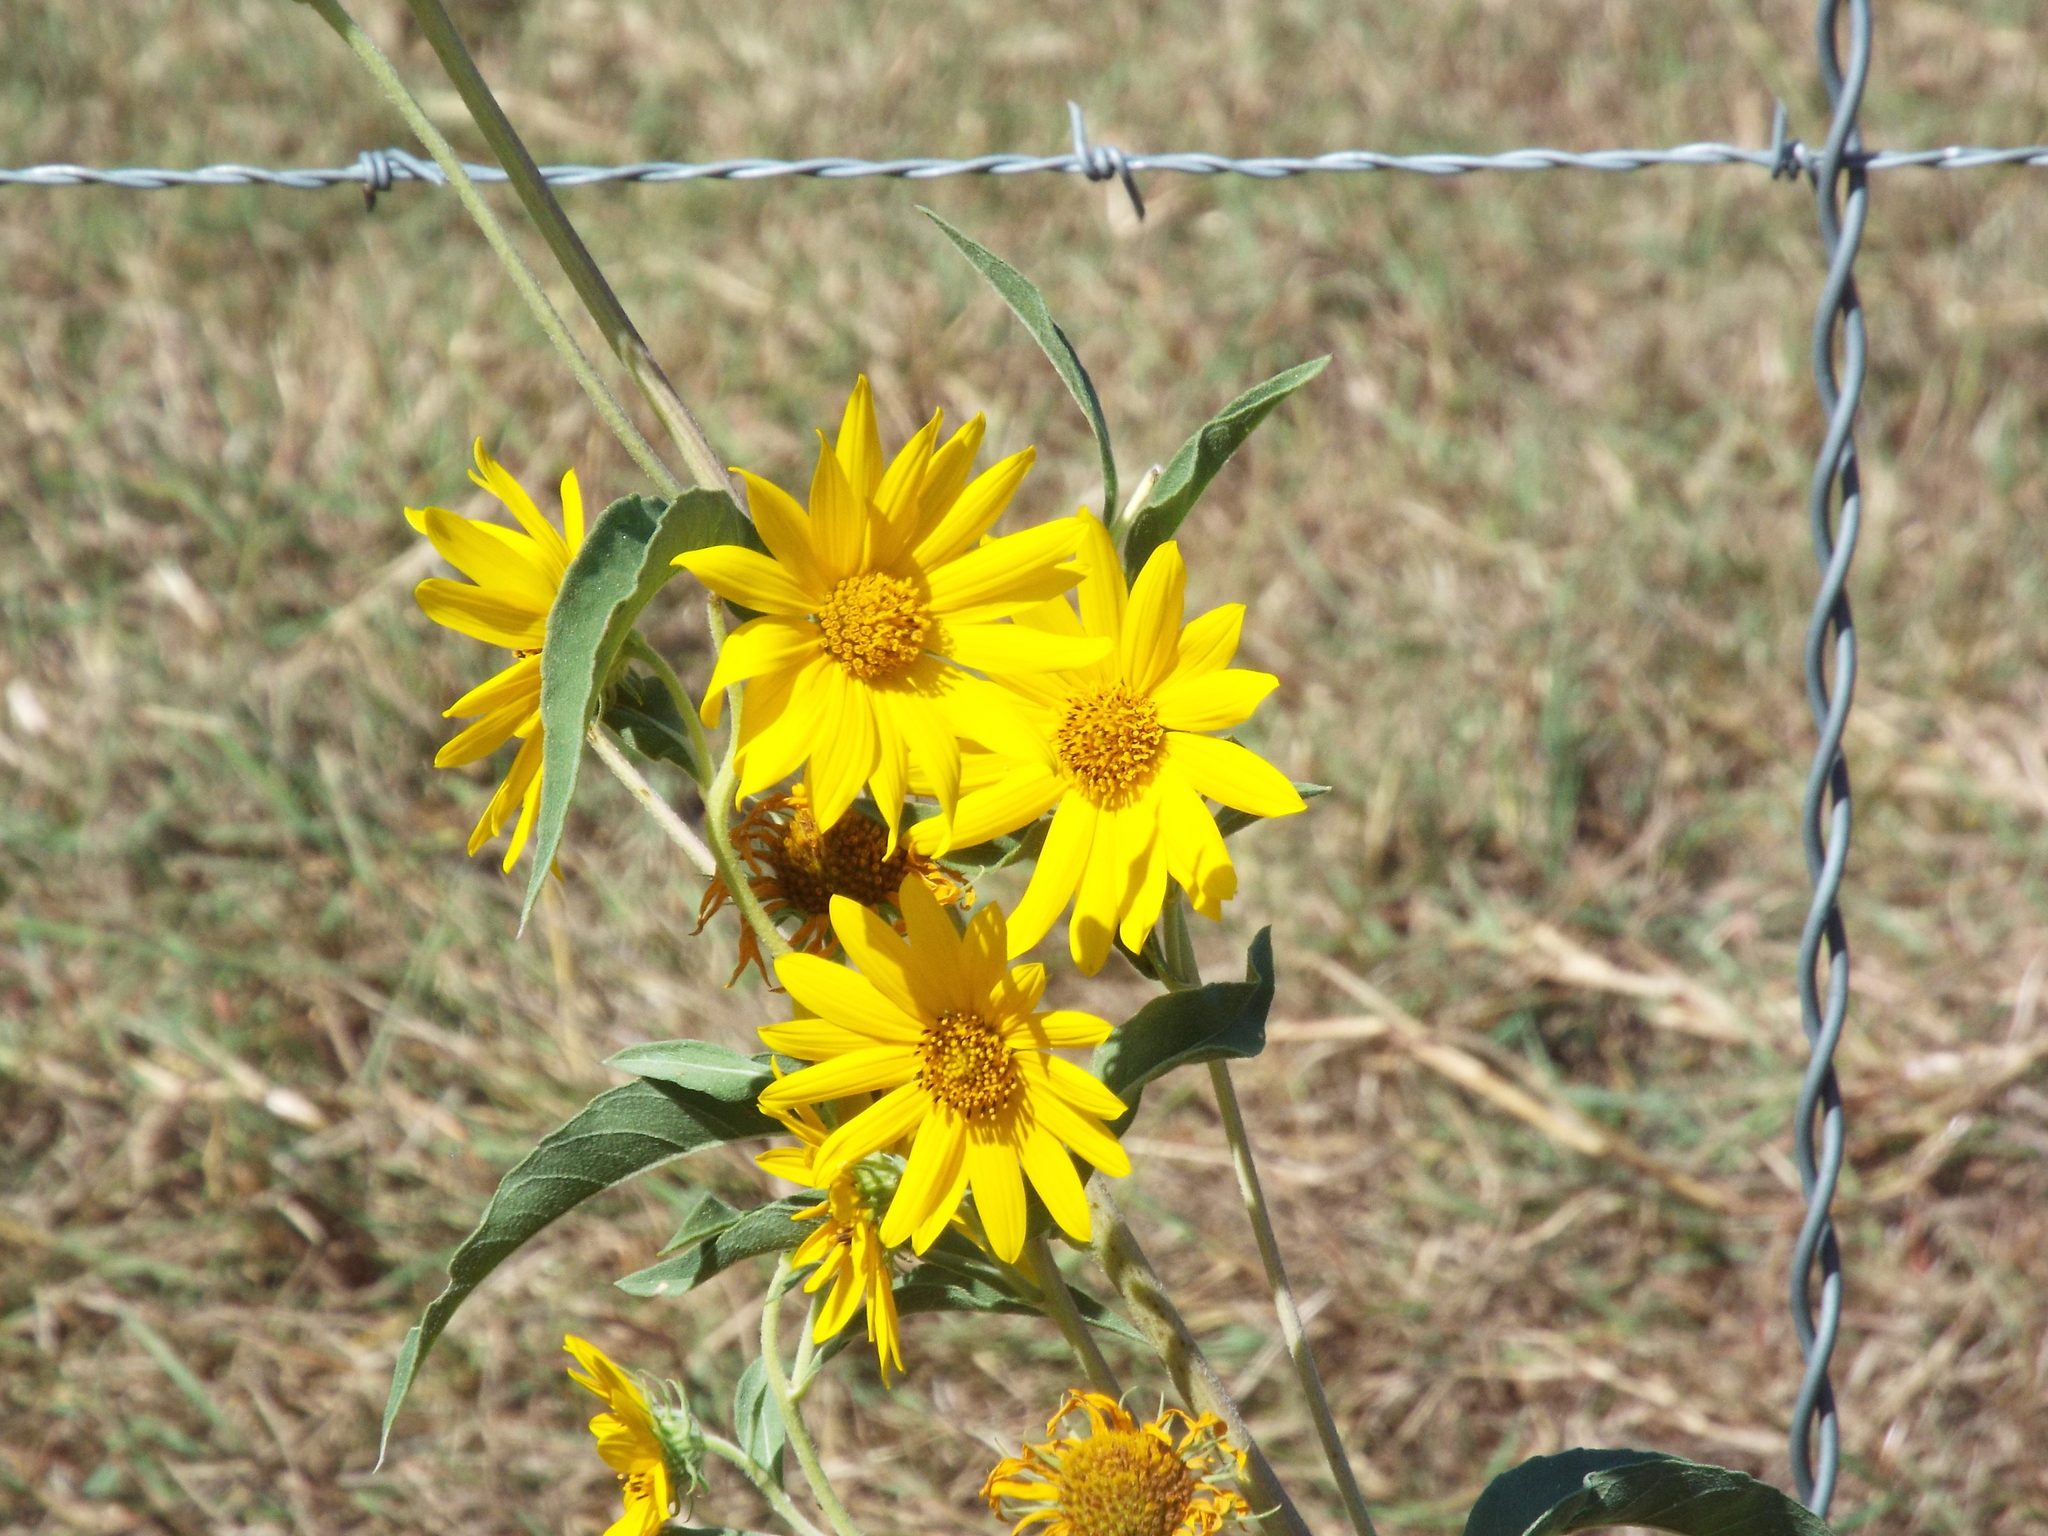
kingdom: Plantae
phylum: Tracheophyta
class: Magnoliopsida
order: Asterales
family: Asteraceae
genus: Helianthus
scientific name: Helianthus maximiliani
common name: Maximilian's sunflower
